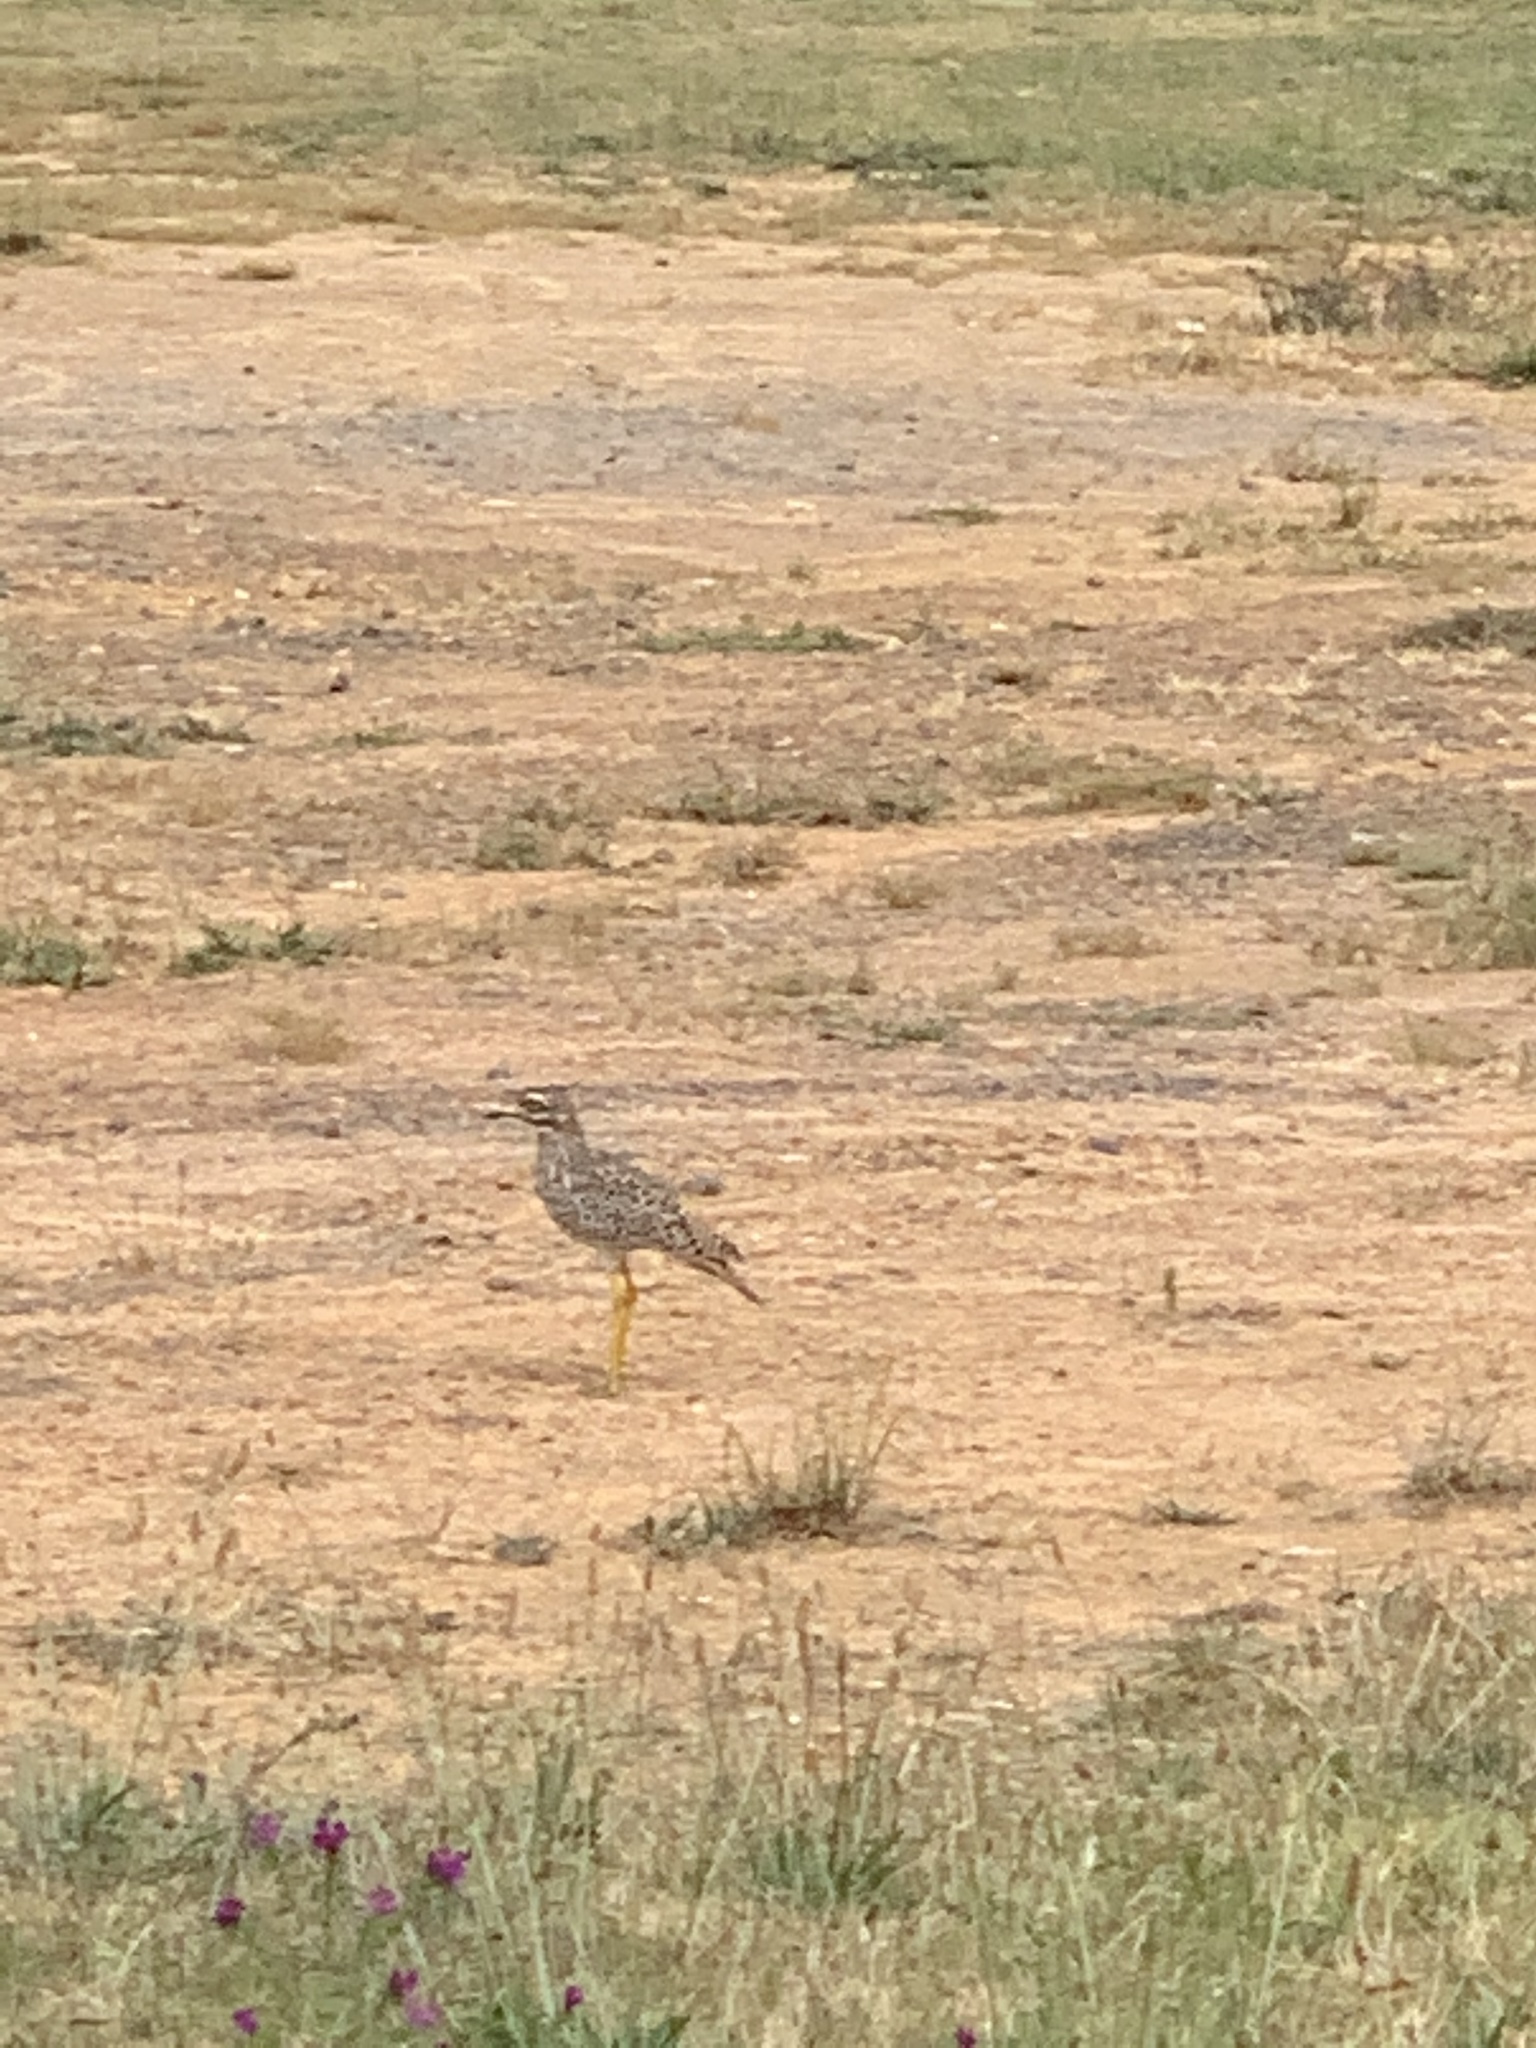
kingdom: Animalia
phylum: Chordata
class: Aves
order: Charadriiformes
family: Burhinidae
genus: Burhinus
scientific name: Burhinus capensis
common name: Spotted thick-knee
